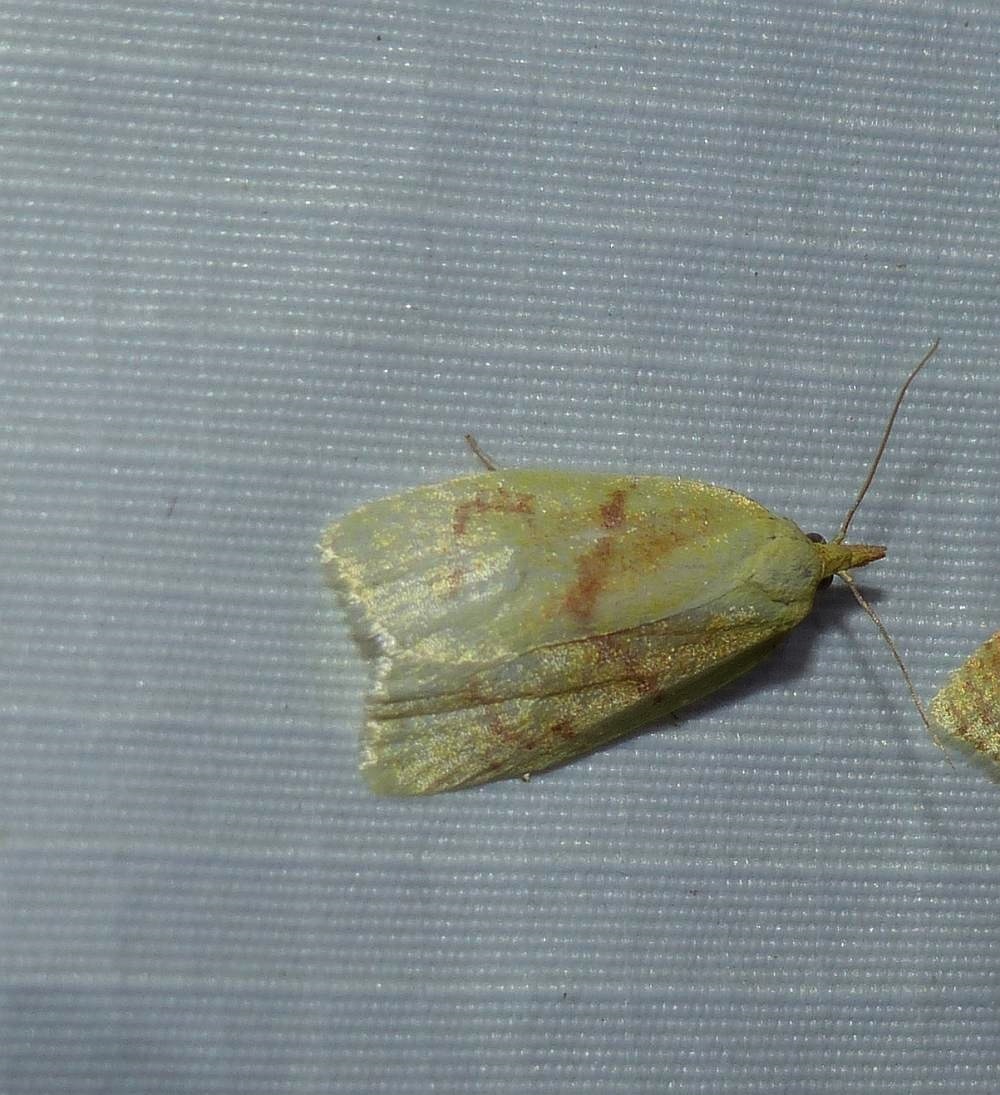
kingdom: Animalia
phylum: Arthropoda
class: Insecta
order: Lepidoptera
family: Tortricidae
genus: Cenopis
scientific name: Cenopis pettitana
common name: Maple-basswood leafroller moth
